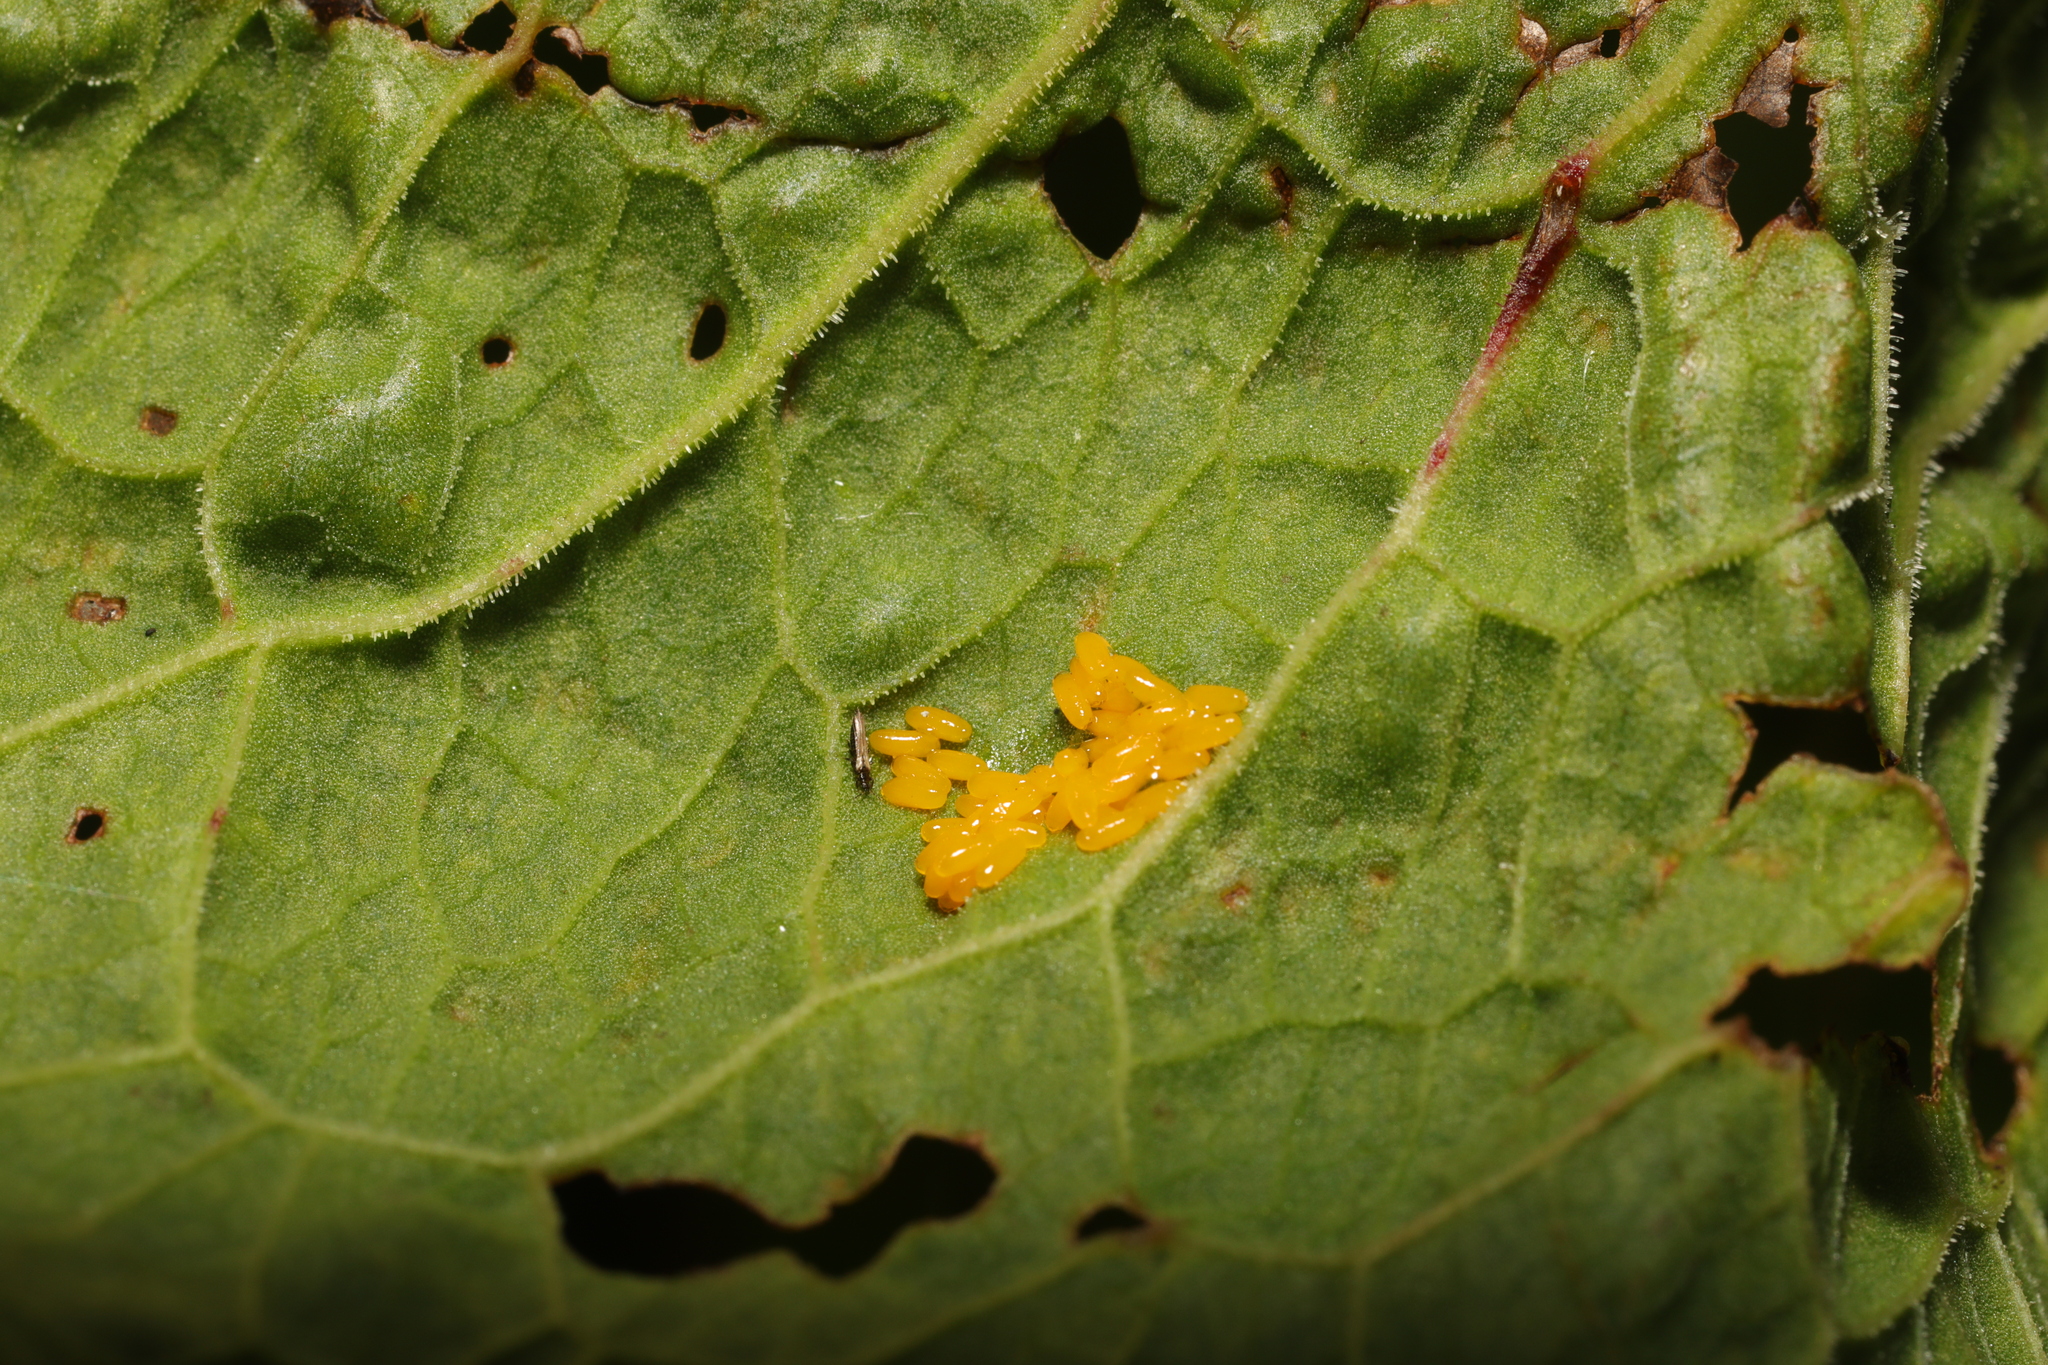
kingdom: Animalia
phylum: Arthropoda
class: Insecta
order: Coleoptera
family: Chrysomelidae
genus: Gastrophysa
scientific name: Gastrophysa viridula
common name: Green dock beetle
